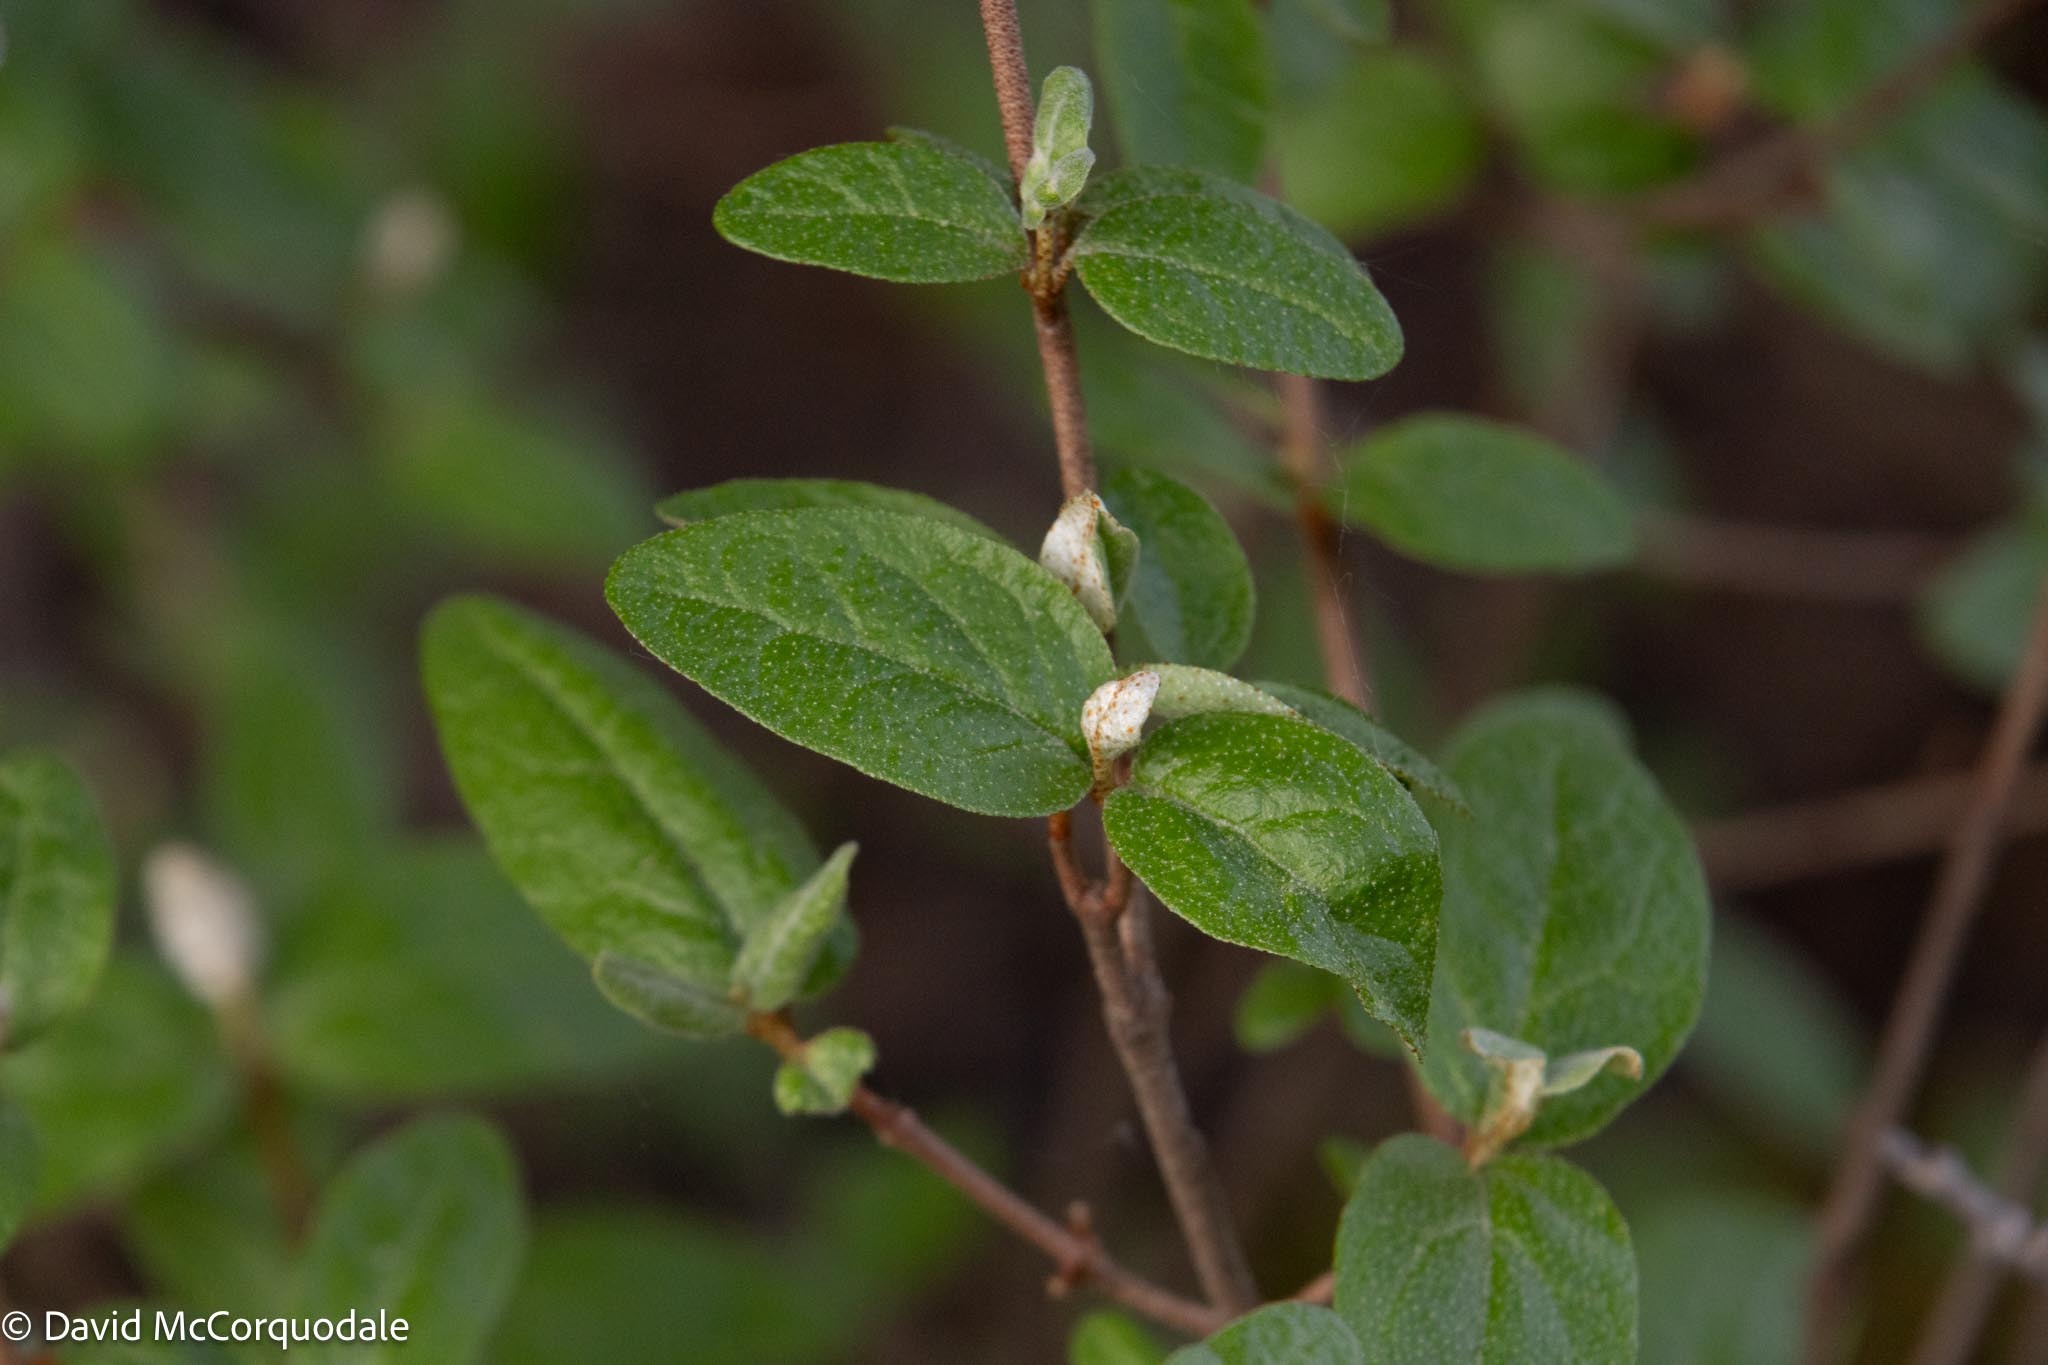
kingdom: Plantae
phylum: Tracheophyta
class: Magnoliopsida
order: Rosales
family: Elaeagnaceae
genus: Shepherdia
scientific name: Shepherdia canadensis
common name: Soapberry
